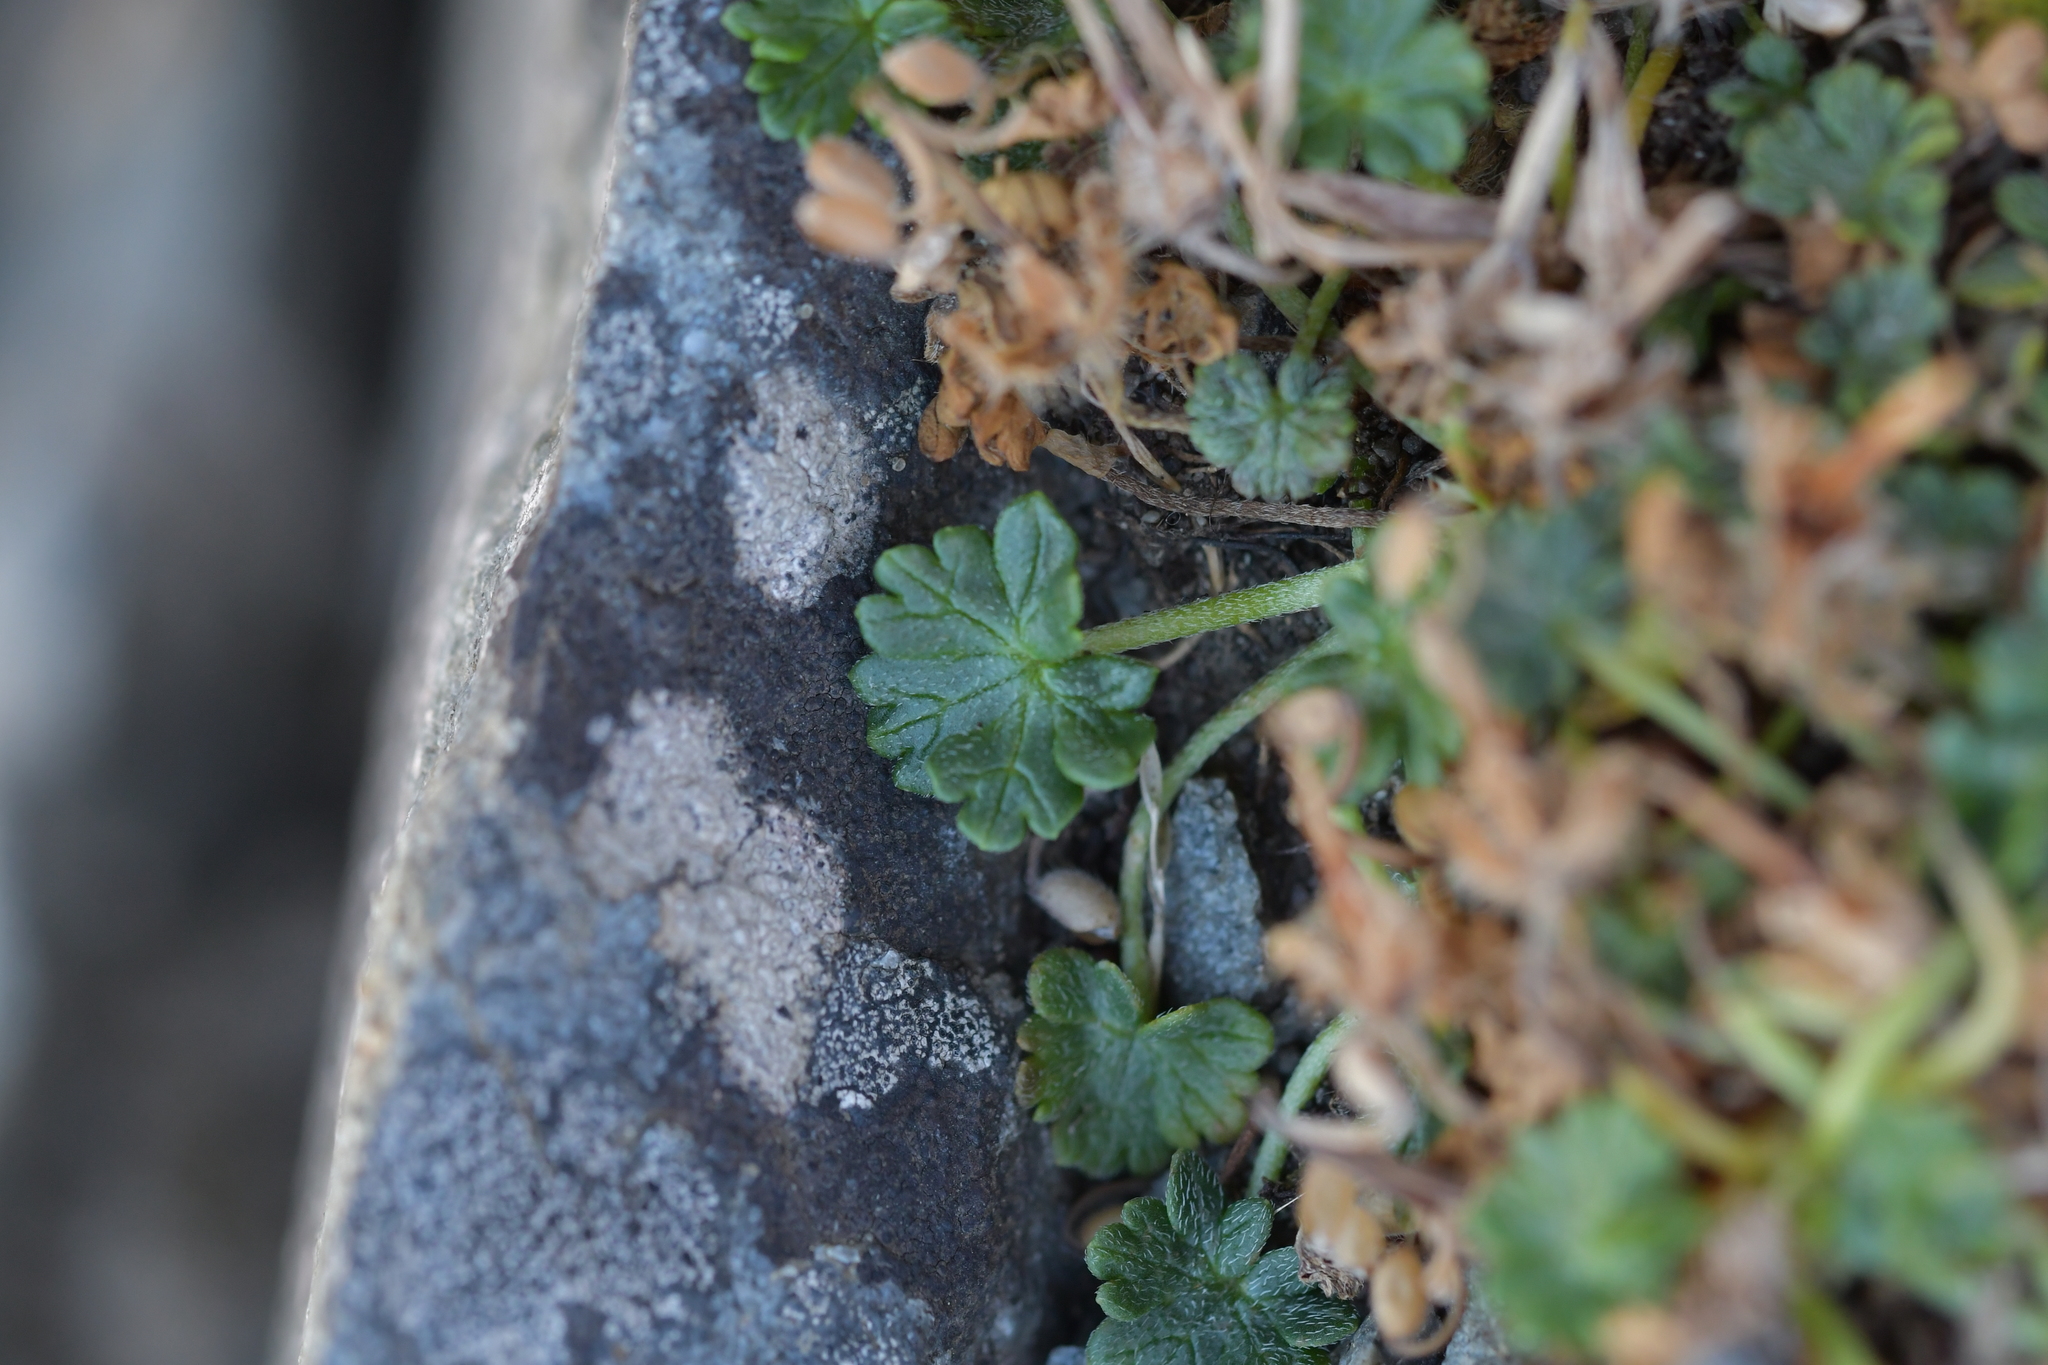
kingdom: Plantae
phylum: Tracheophyta
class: Magnoliopsida
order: Geraniales
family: Geraniaceae
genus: Geranium
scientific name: Geranium brevicaule
